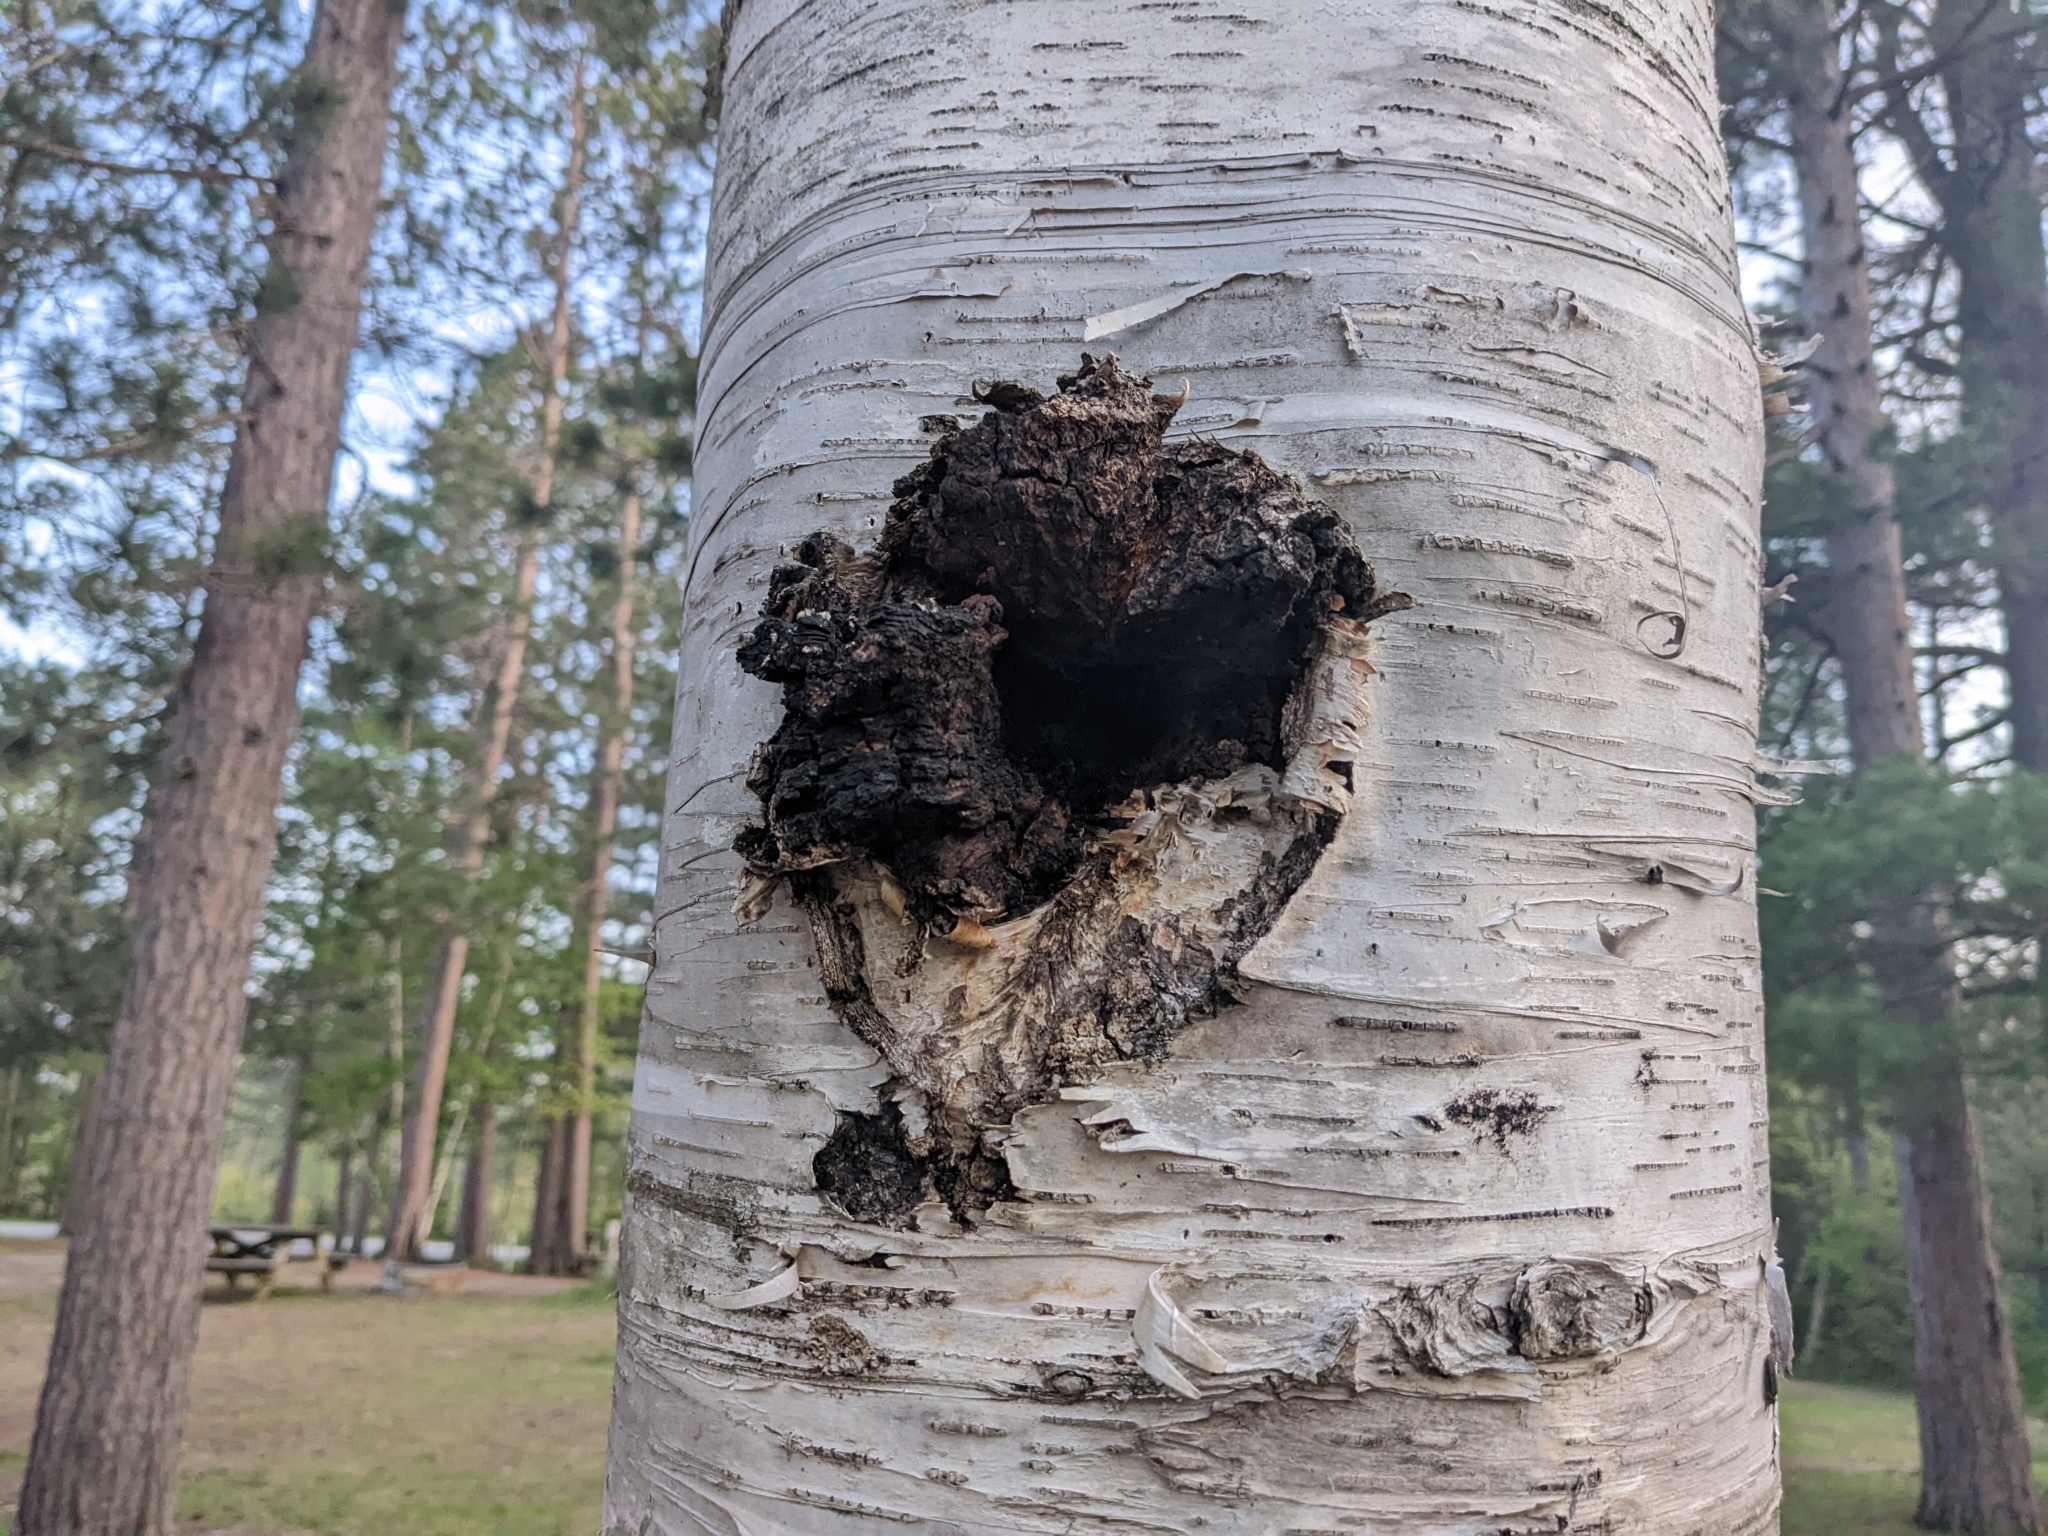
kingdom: Fungi
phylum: Basidiomycota
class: Agaricomycetes
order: Hymenochaetales
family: Hymenochaetaceae
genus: Inonotus
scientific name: Inonotus obliquus
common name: Chaga
